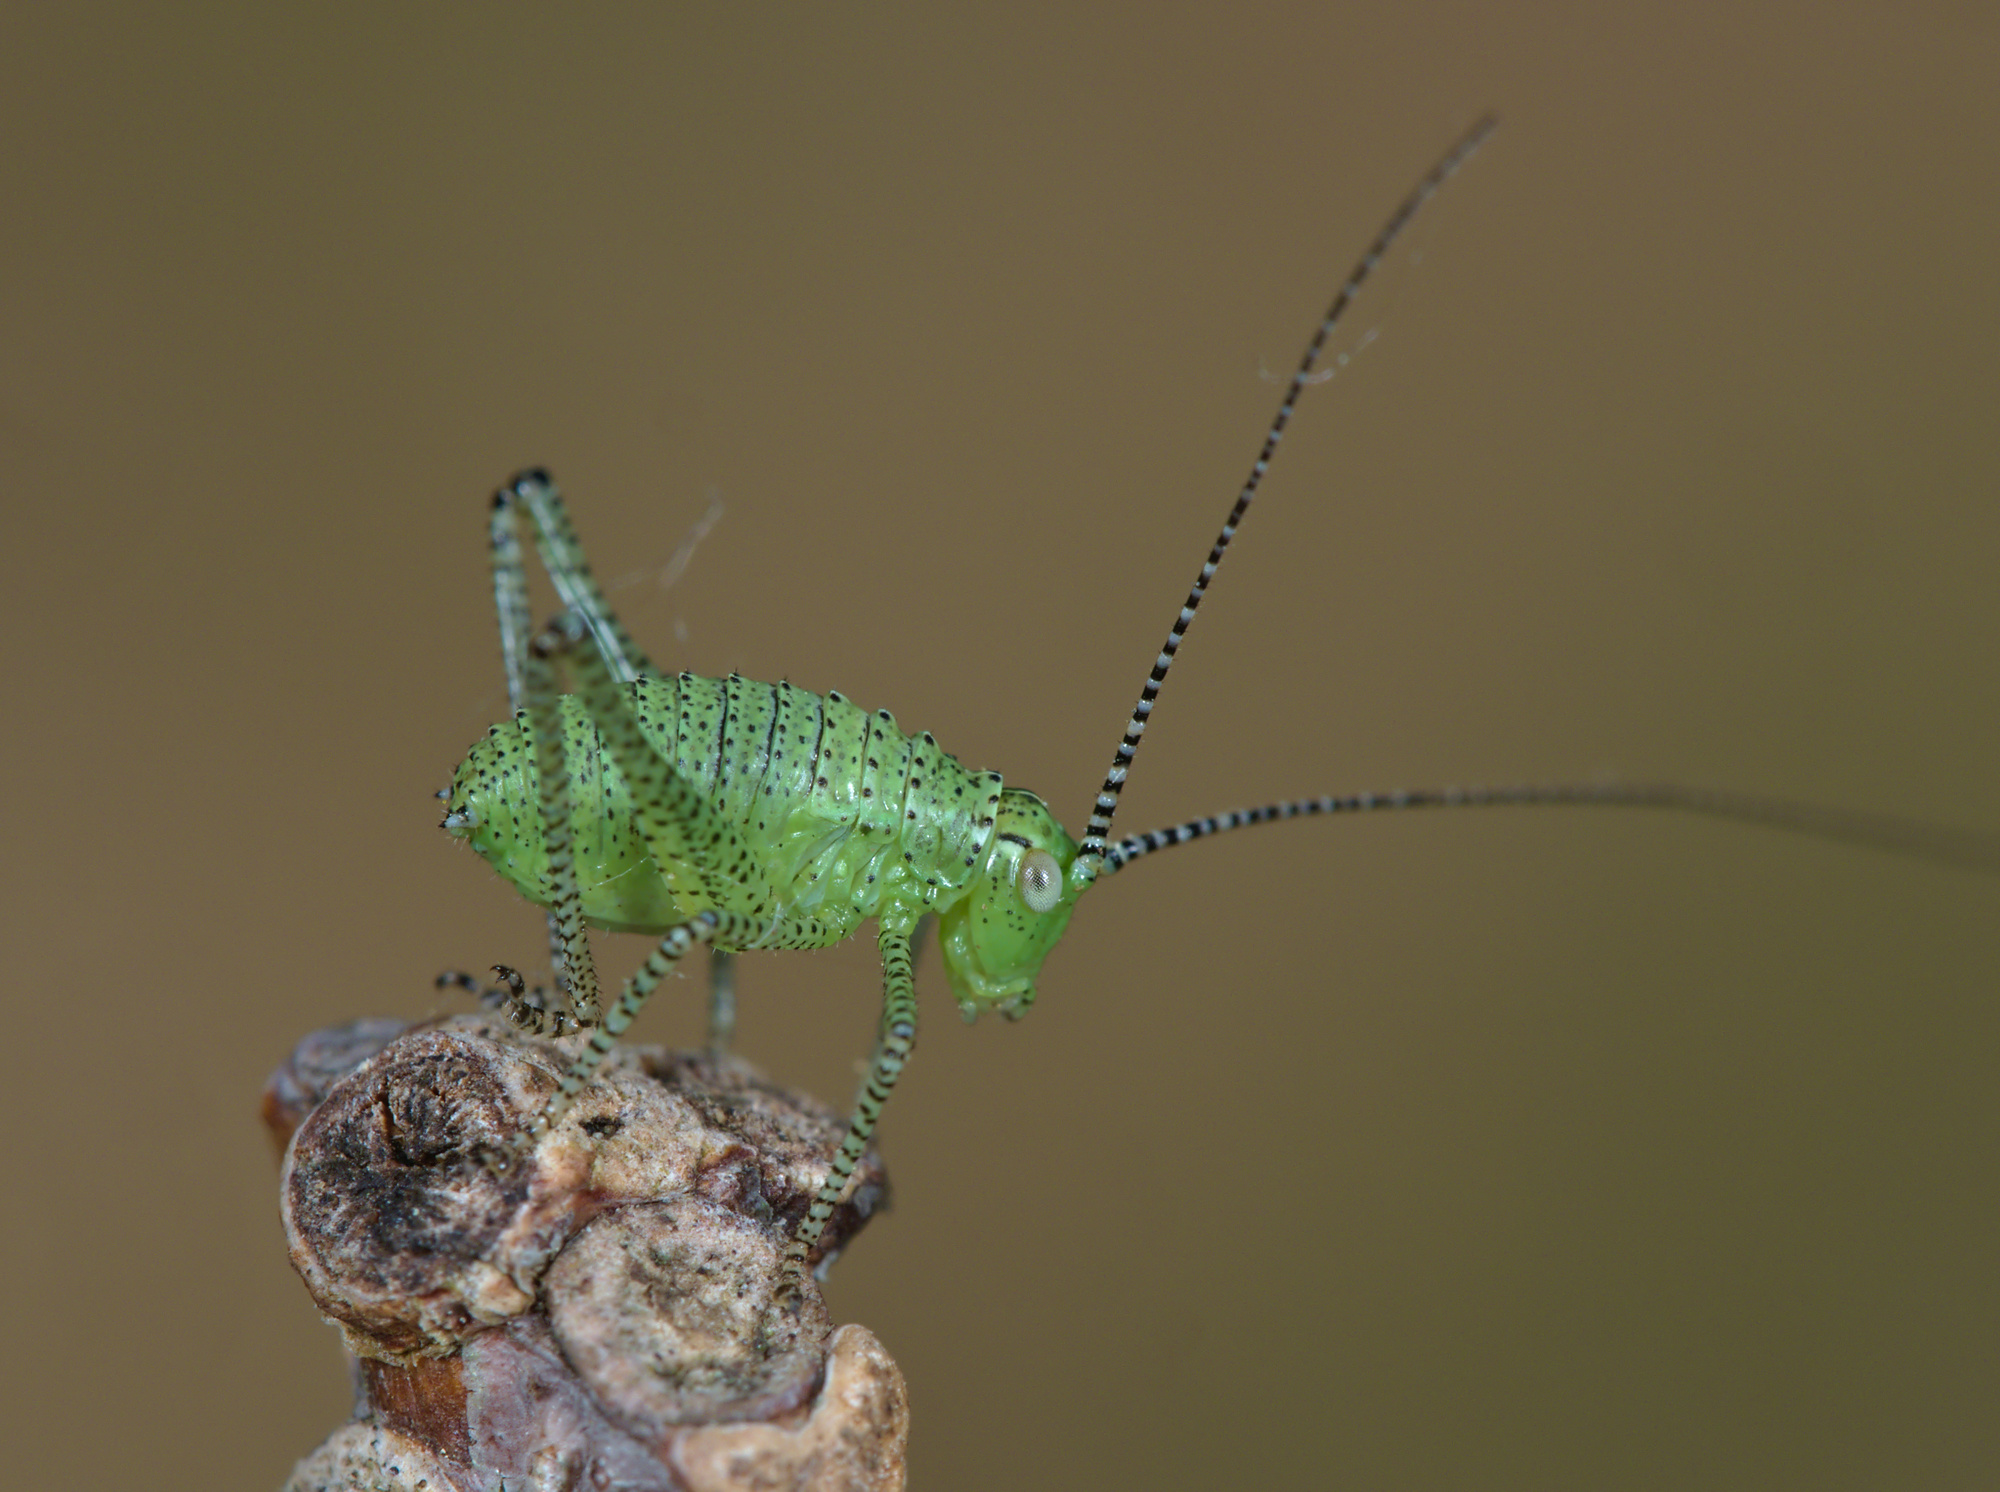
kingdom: Animalia
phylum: Arthropoda
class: Insecta
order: Orthoptera
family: Tettigoniidae
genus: Leptophyes
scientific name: Leptophyes punctatissima
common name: Speckled bush-cricket
